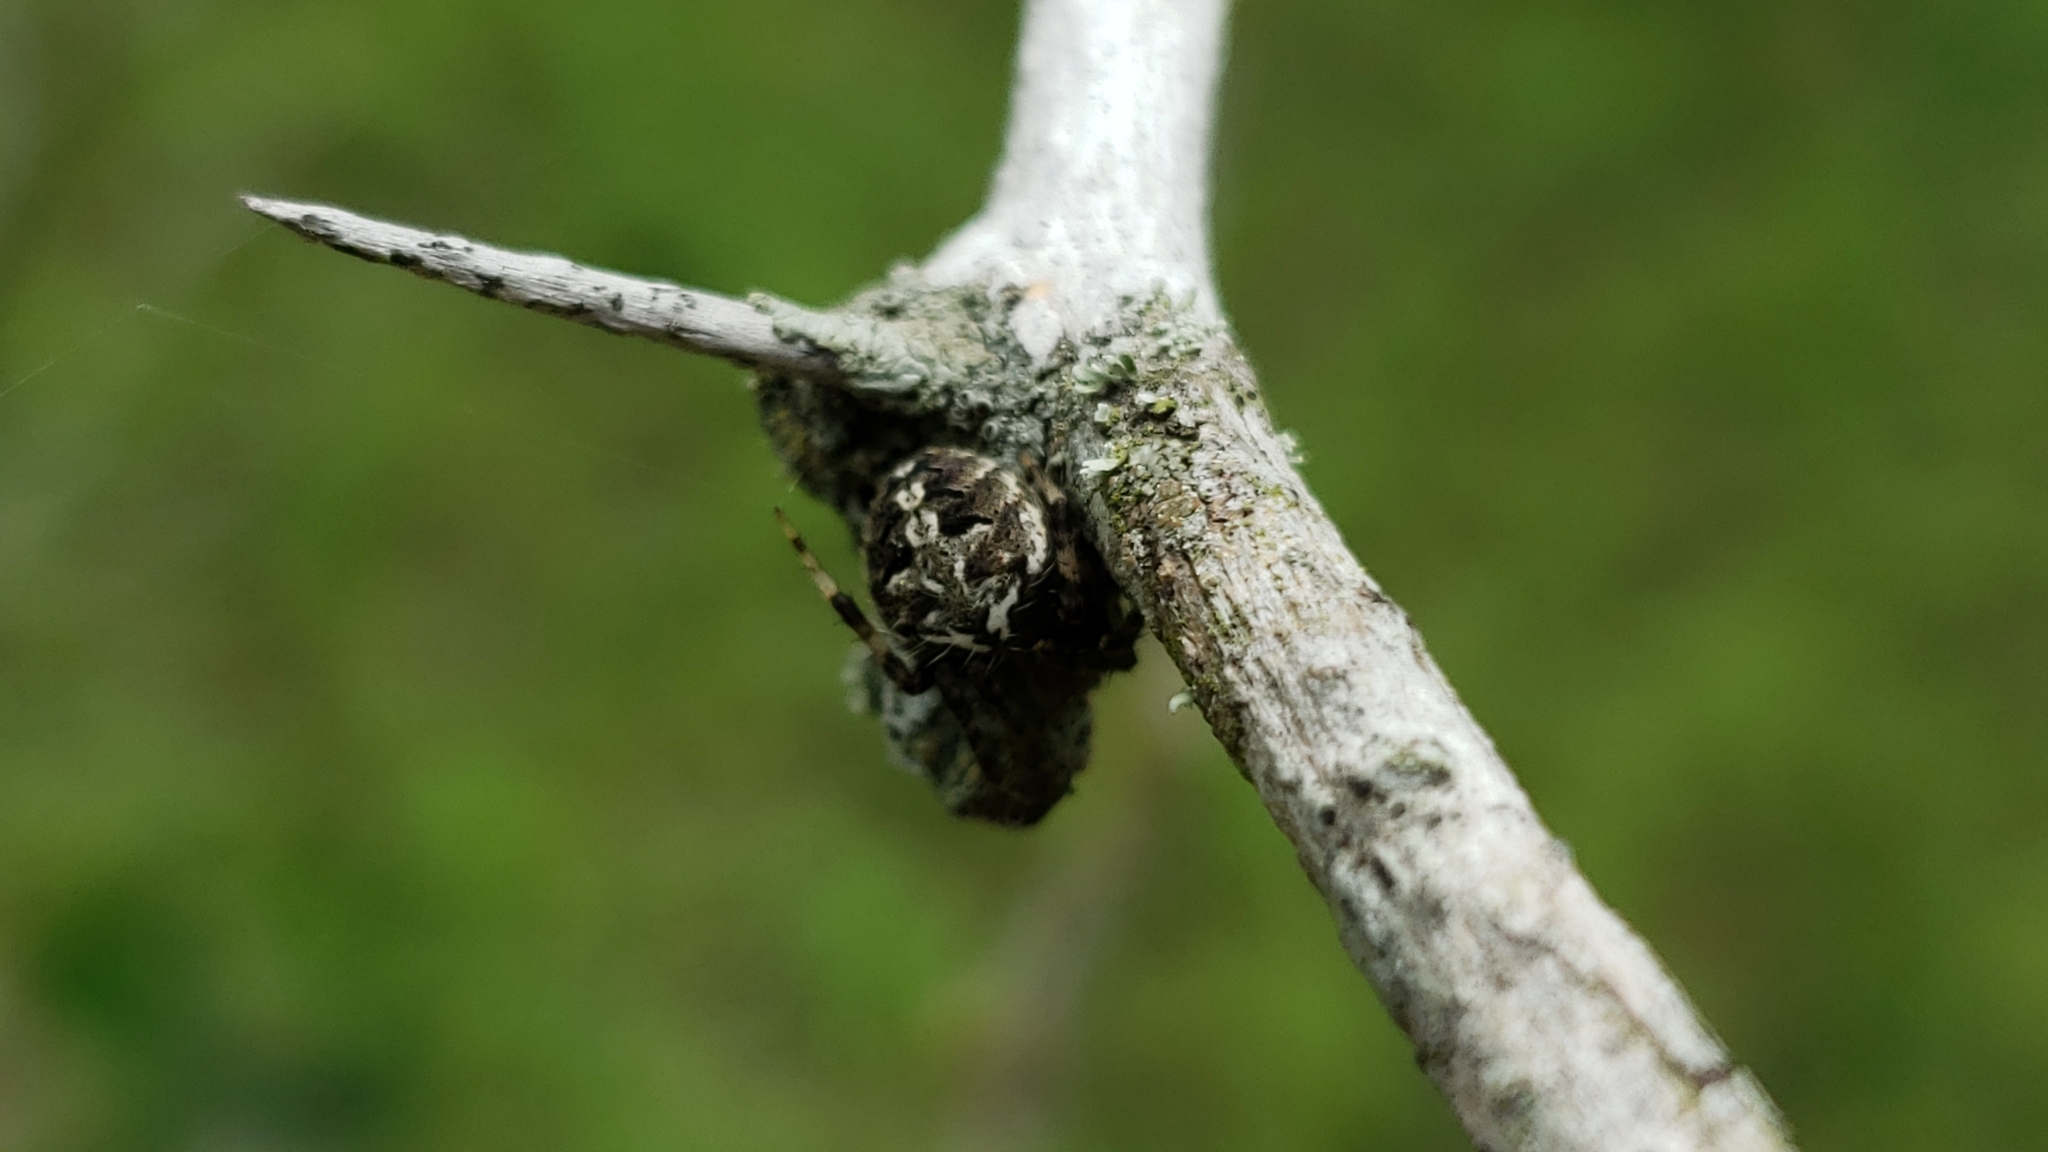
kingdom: Animalia
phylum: Arthropoda
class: Arachnida
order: Araneae
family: Araneidae
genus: Neoscona
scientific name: Neoscona arabesca
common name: Orb weavers
